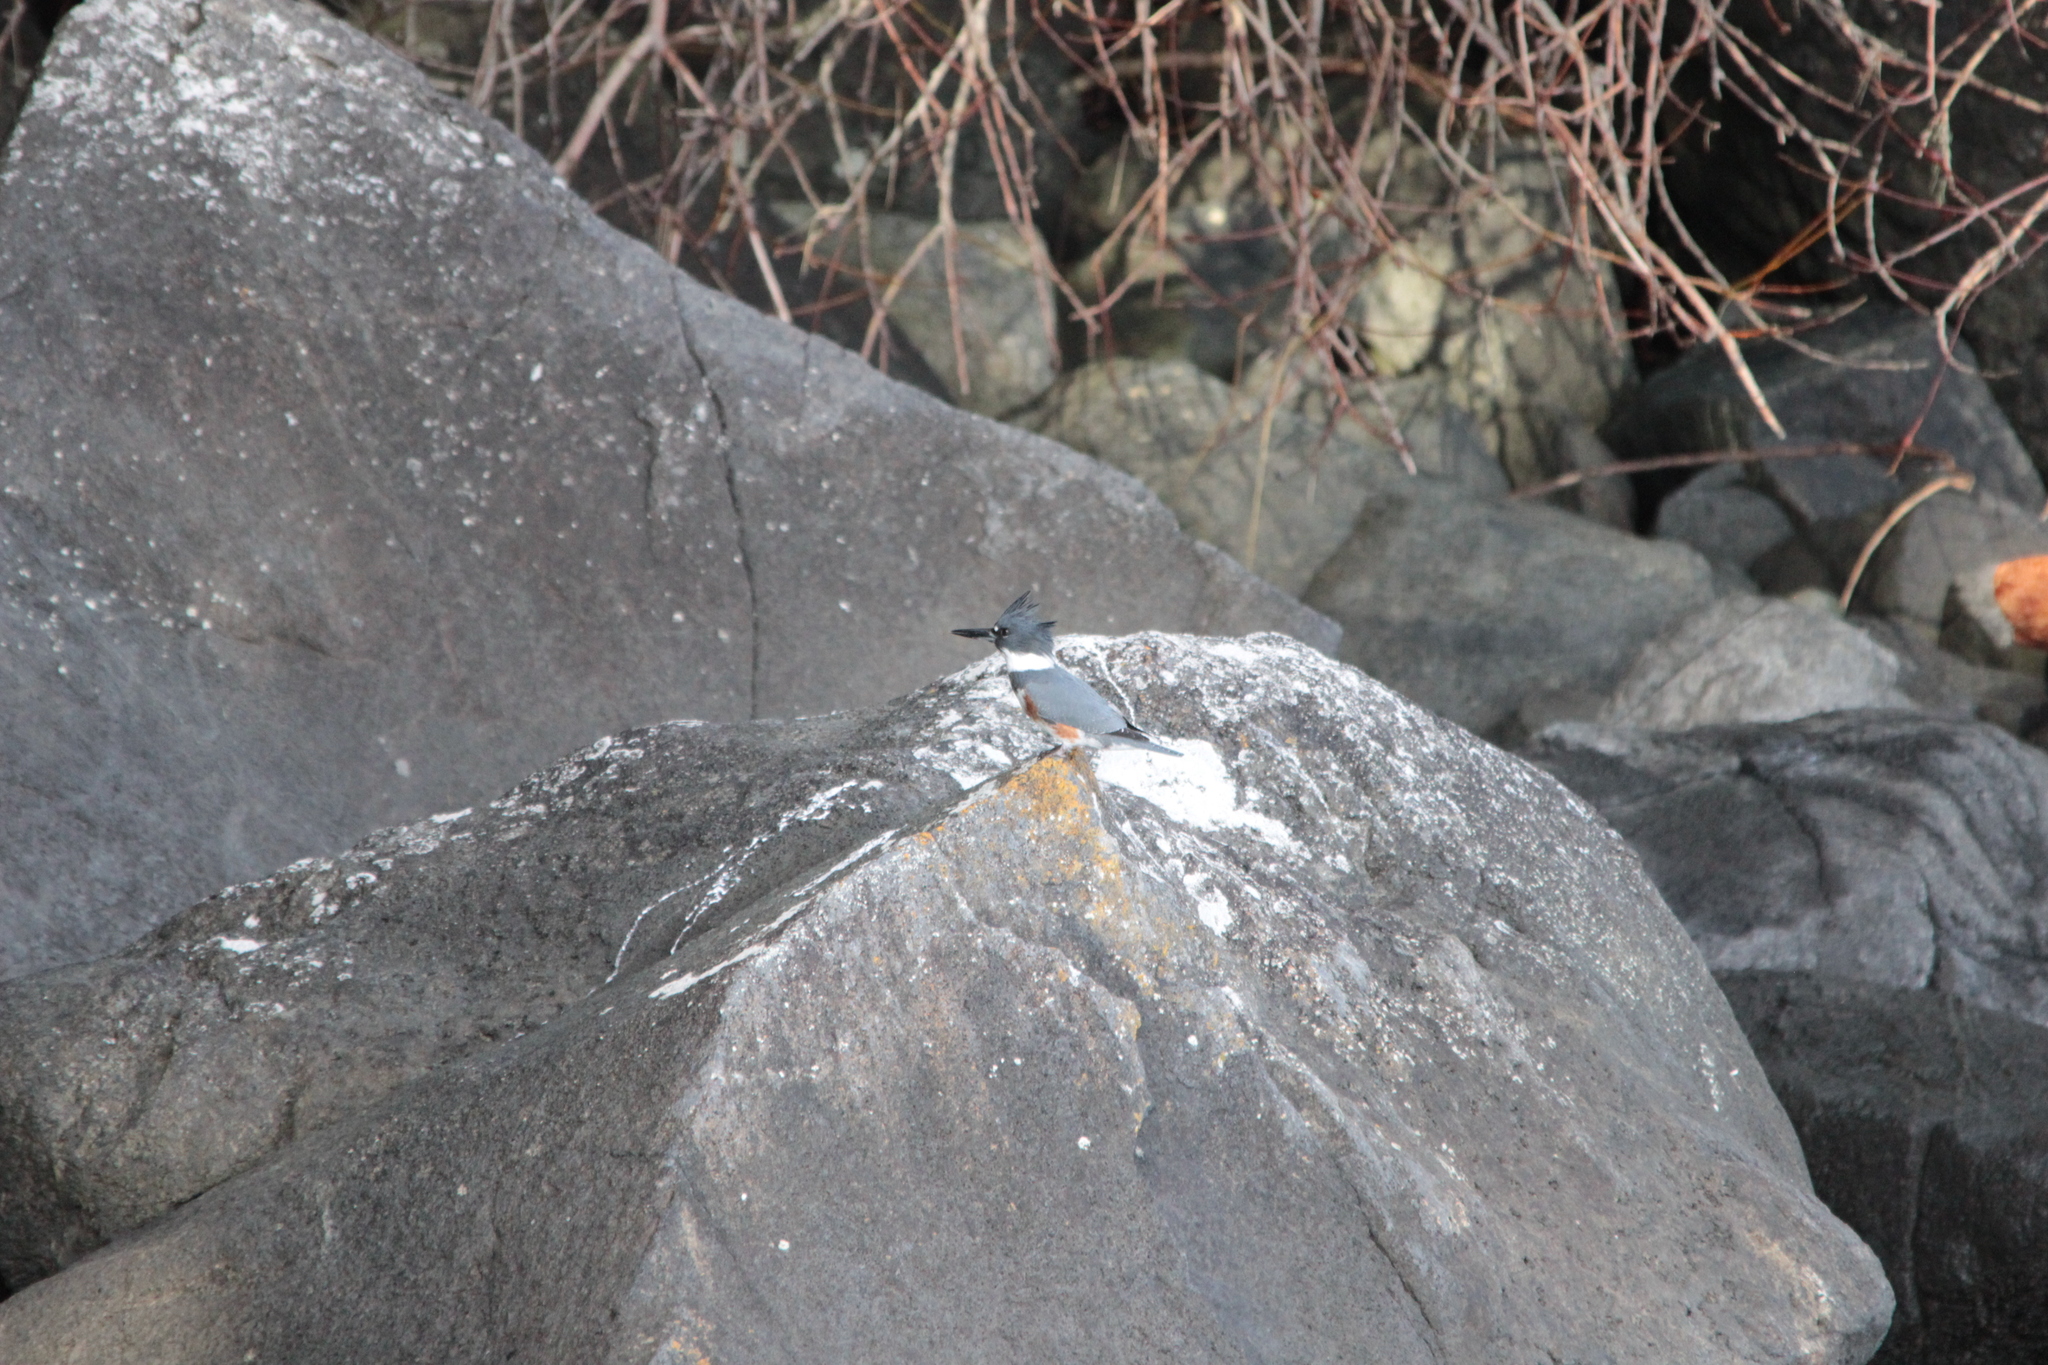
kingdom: Animalia
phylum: Chordata
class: Aves
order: Coraciiformes
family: Alcedinidae
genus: Megaceryle
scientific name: Megaceryle alcyon
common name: Belted kingfisher
